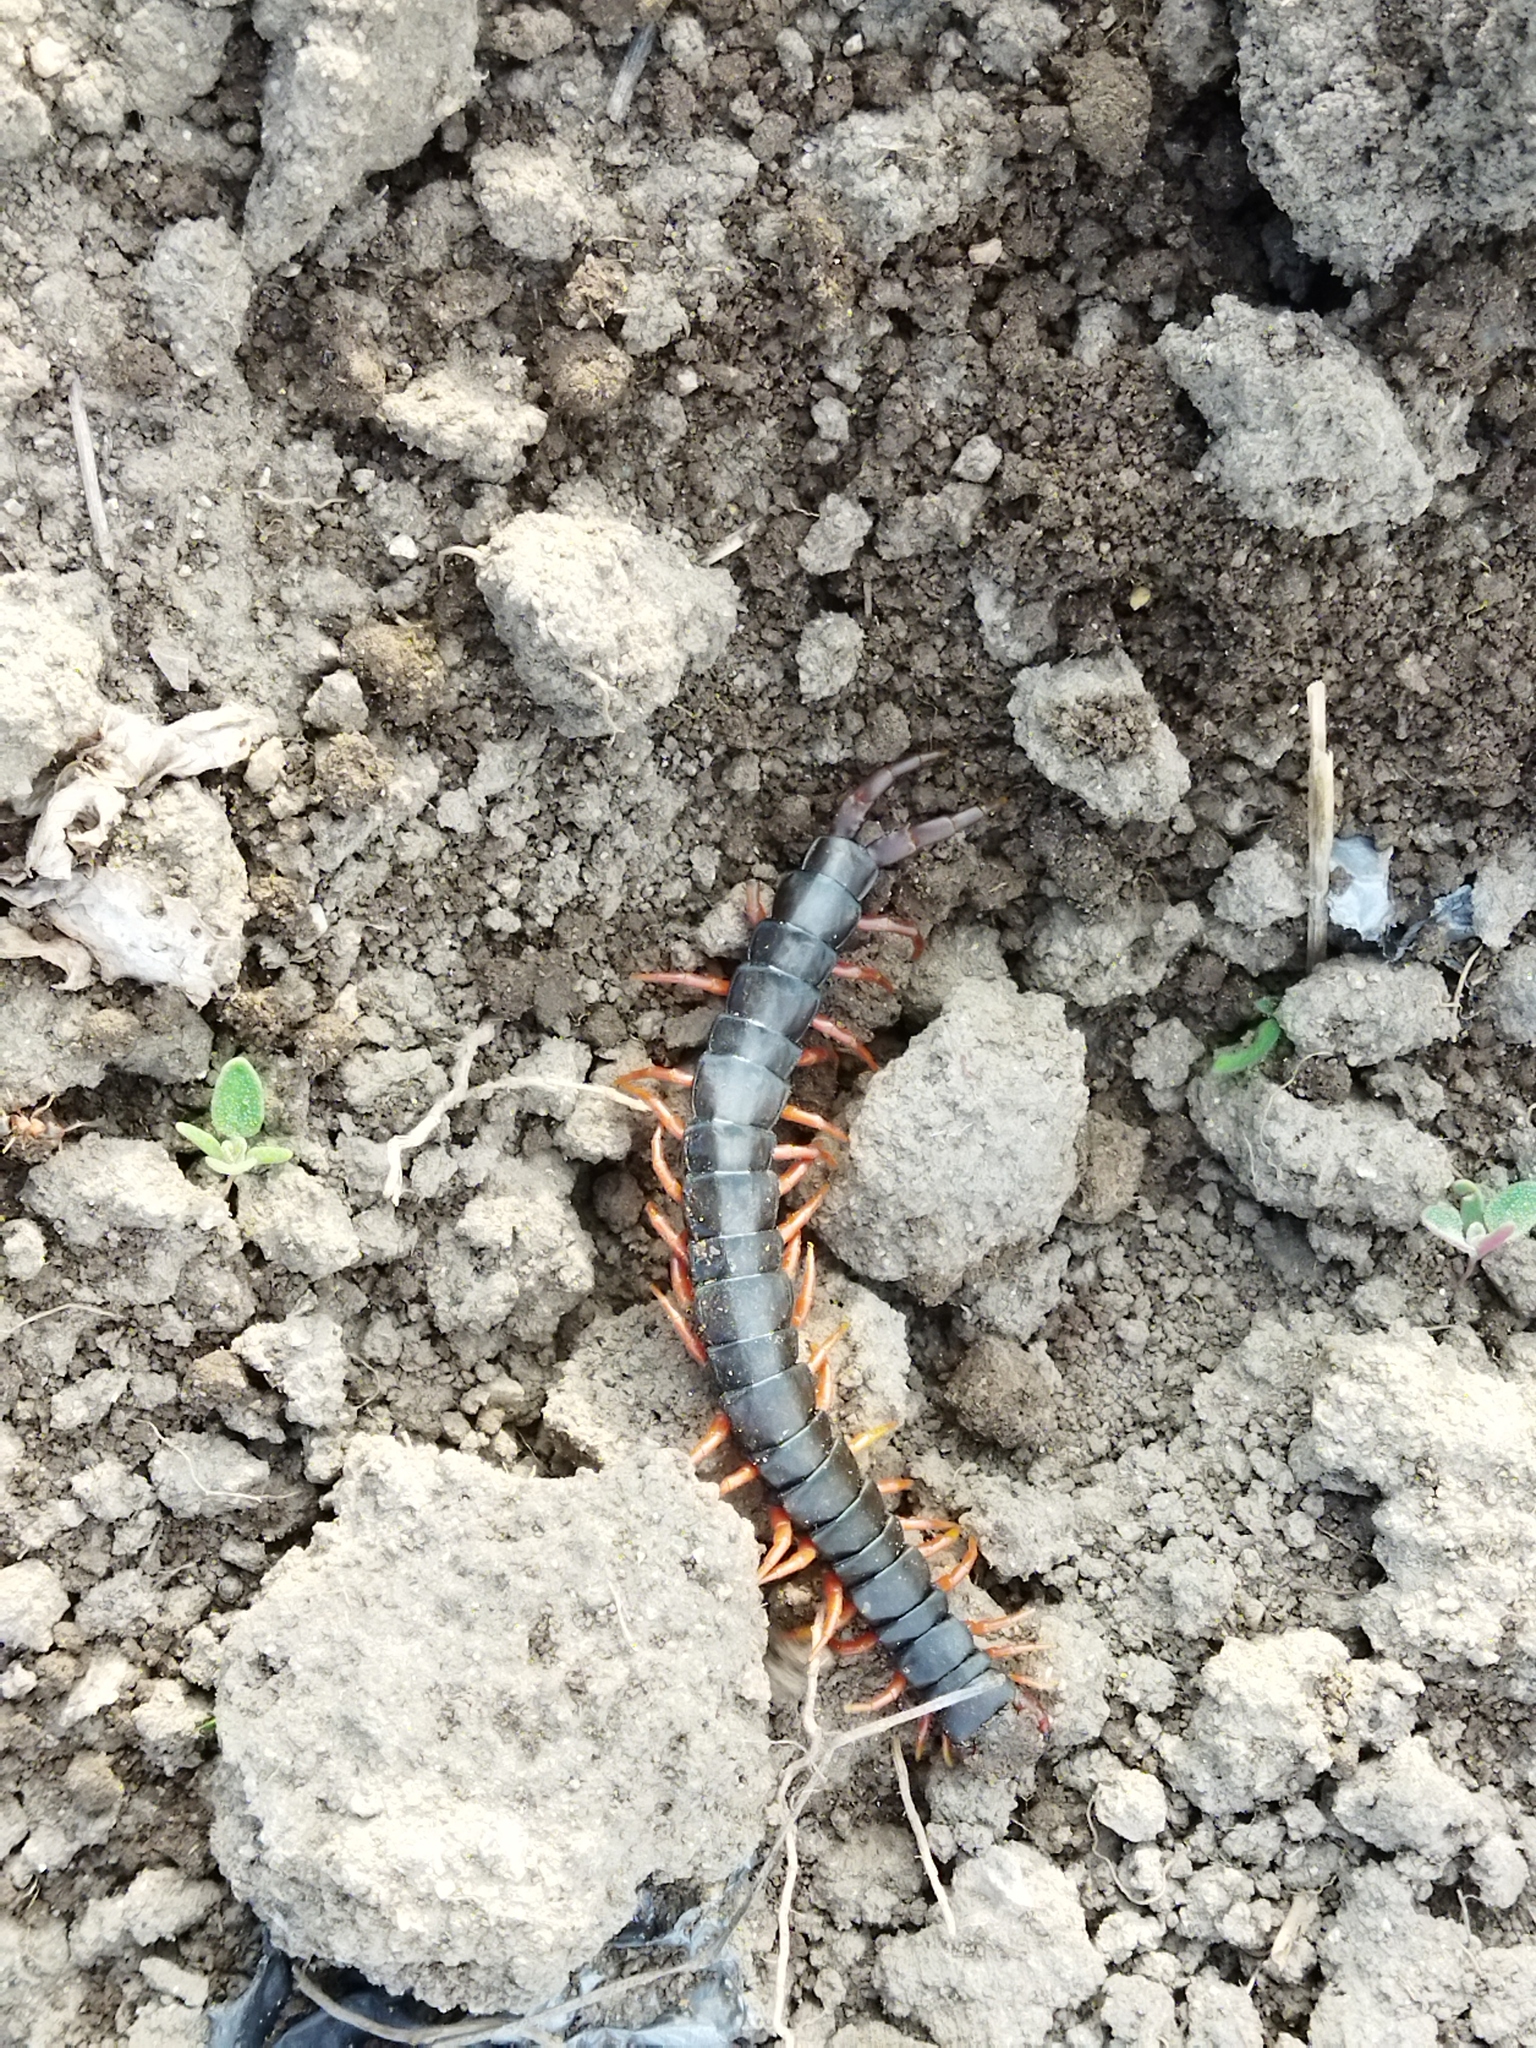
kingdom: Animalia
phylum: Arthropoda
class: Chilopoda
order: Scolopendromorpha
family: Scolopendridae
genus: Scolopendra
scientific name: Scolopendra cingulata
